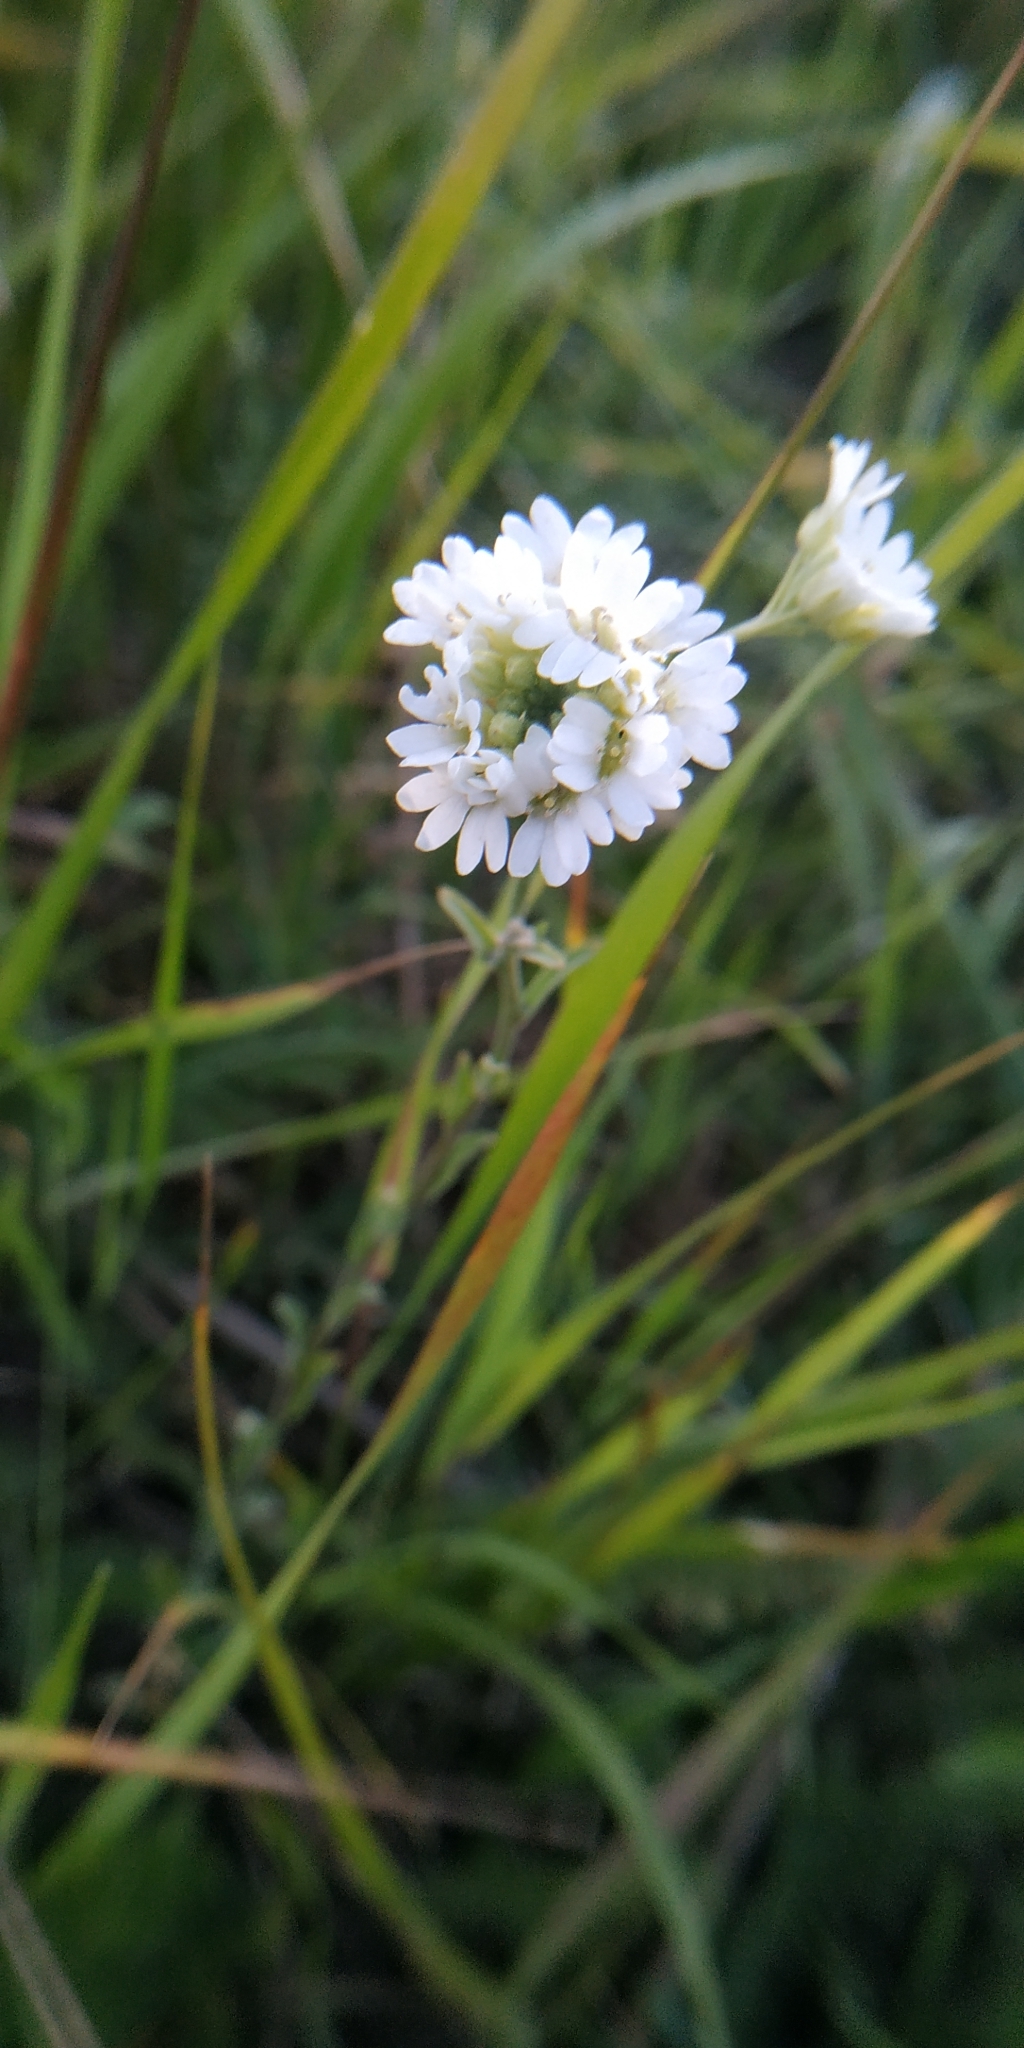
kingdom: Plantae
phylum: Tracheophyta
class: Magnoliopsida
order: Brassicales
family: Brassicaceae
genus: Berteroa
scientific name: Berteroa incana
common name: Hoary alison
